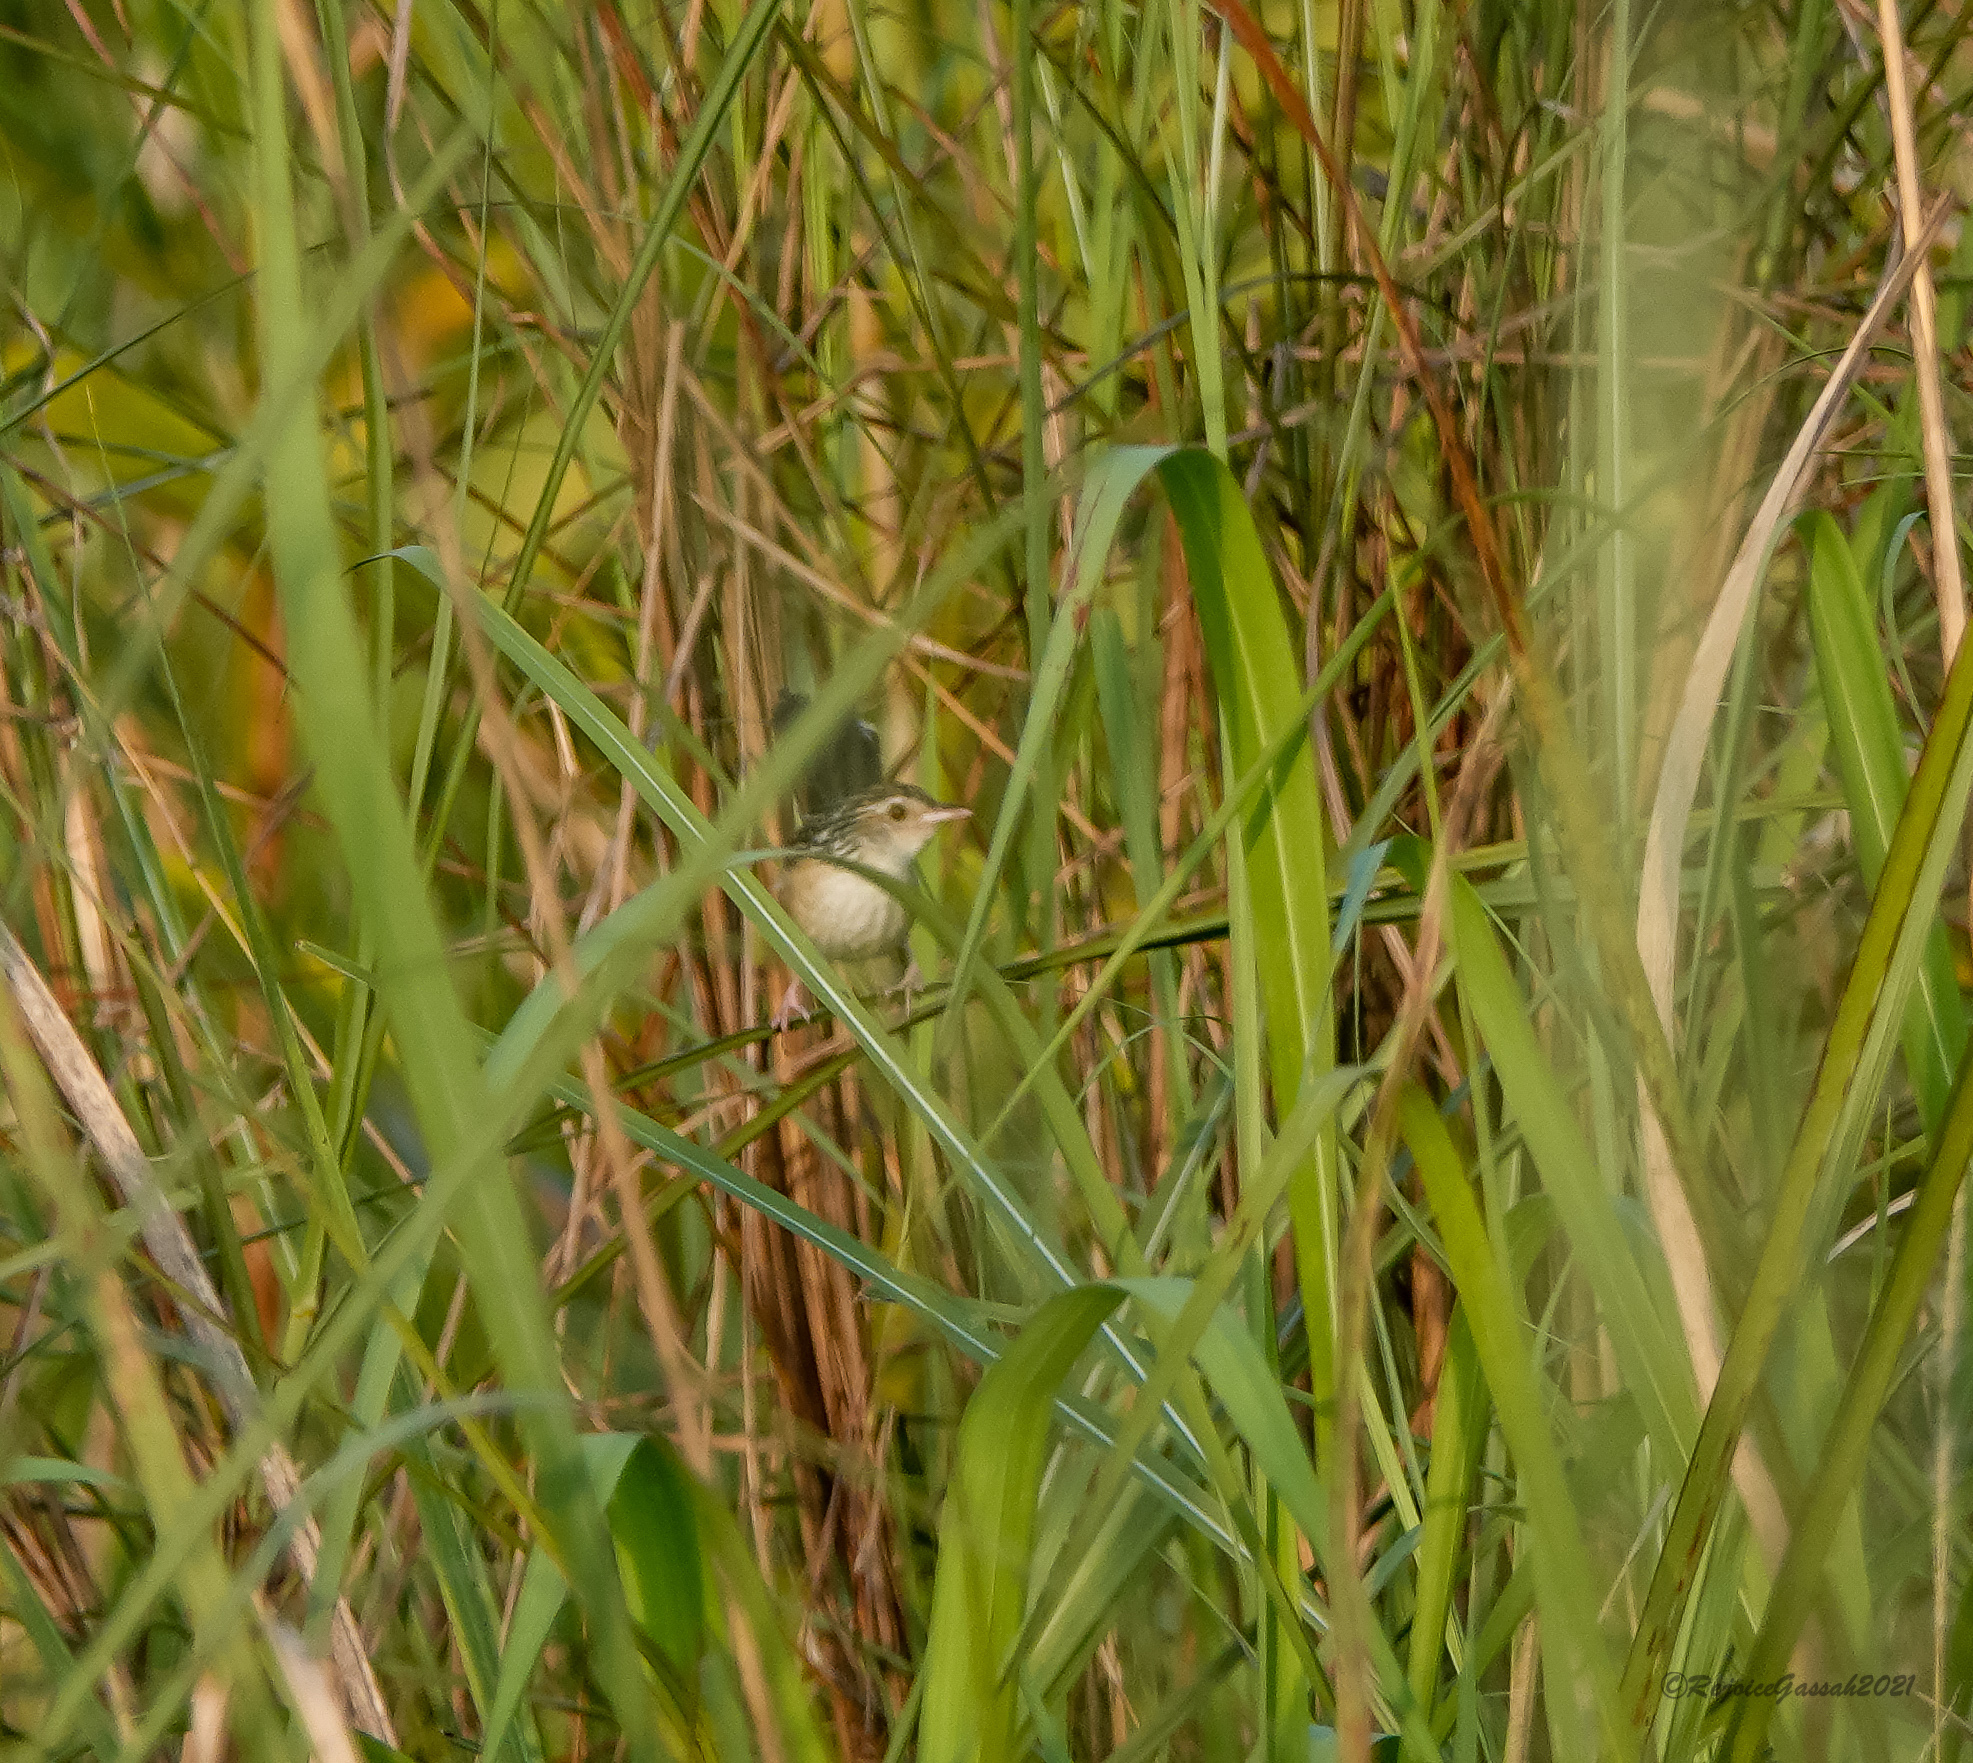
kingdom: Animalia
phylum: Chordata
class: Aves
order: Passeriformes
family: Pellorneidae
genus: Graminicola
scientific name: Graminicola bengalensis
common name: Indian grassbird
